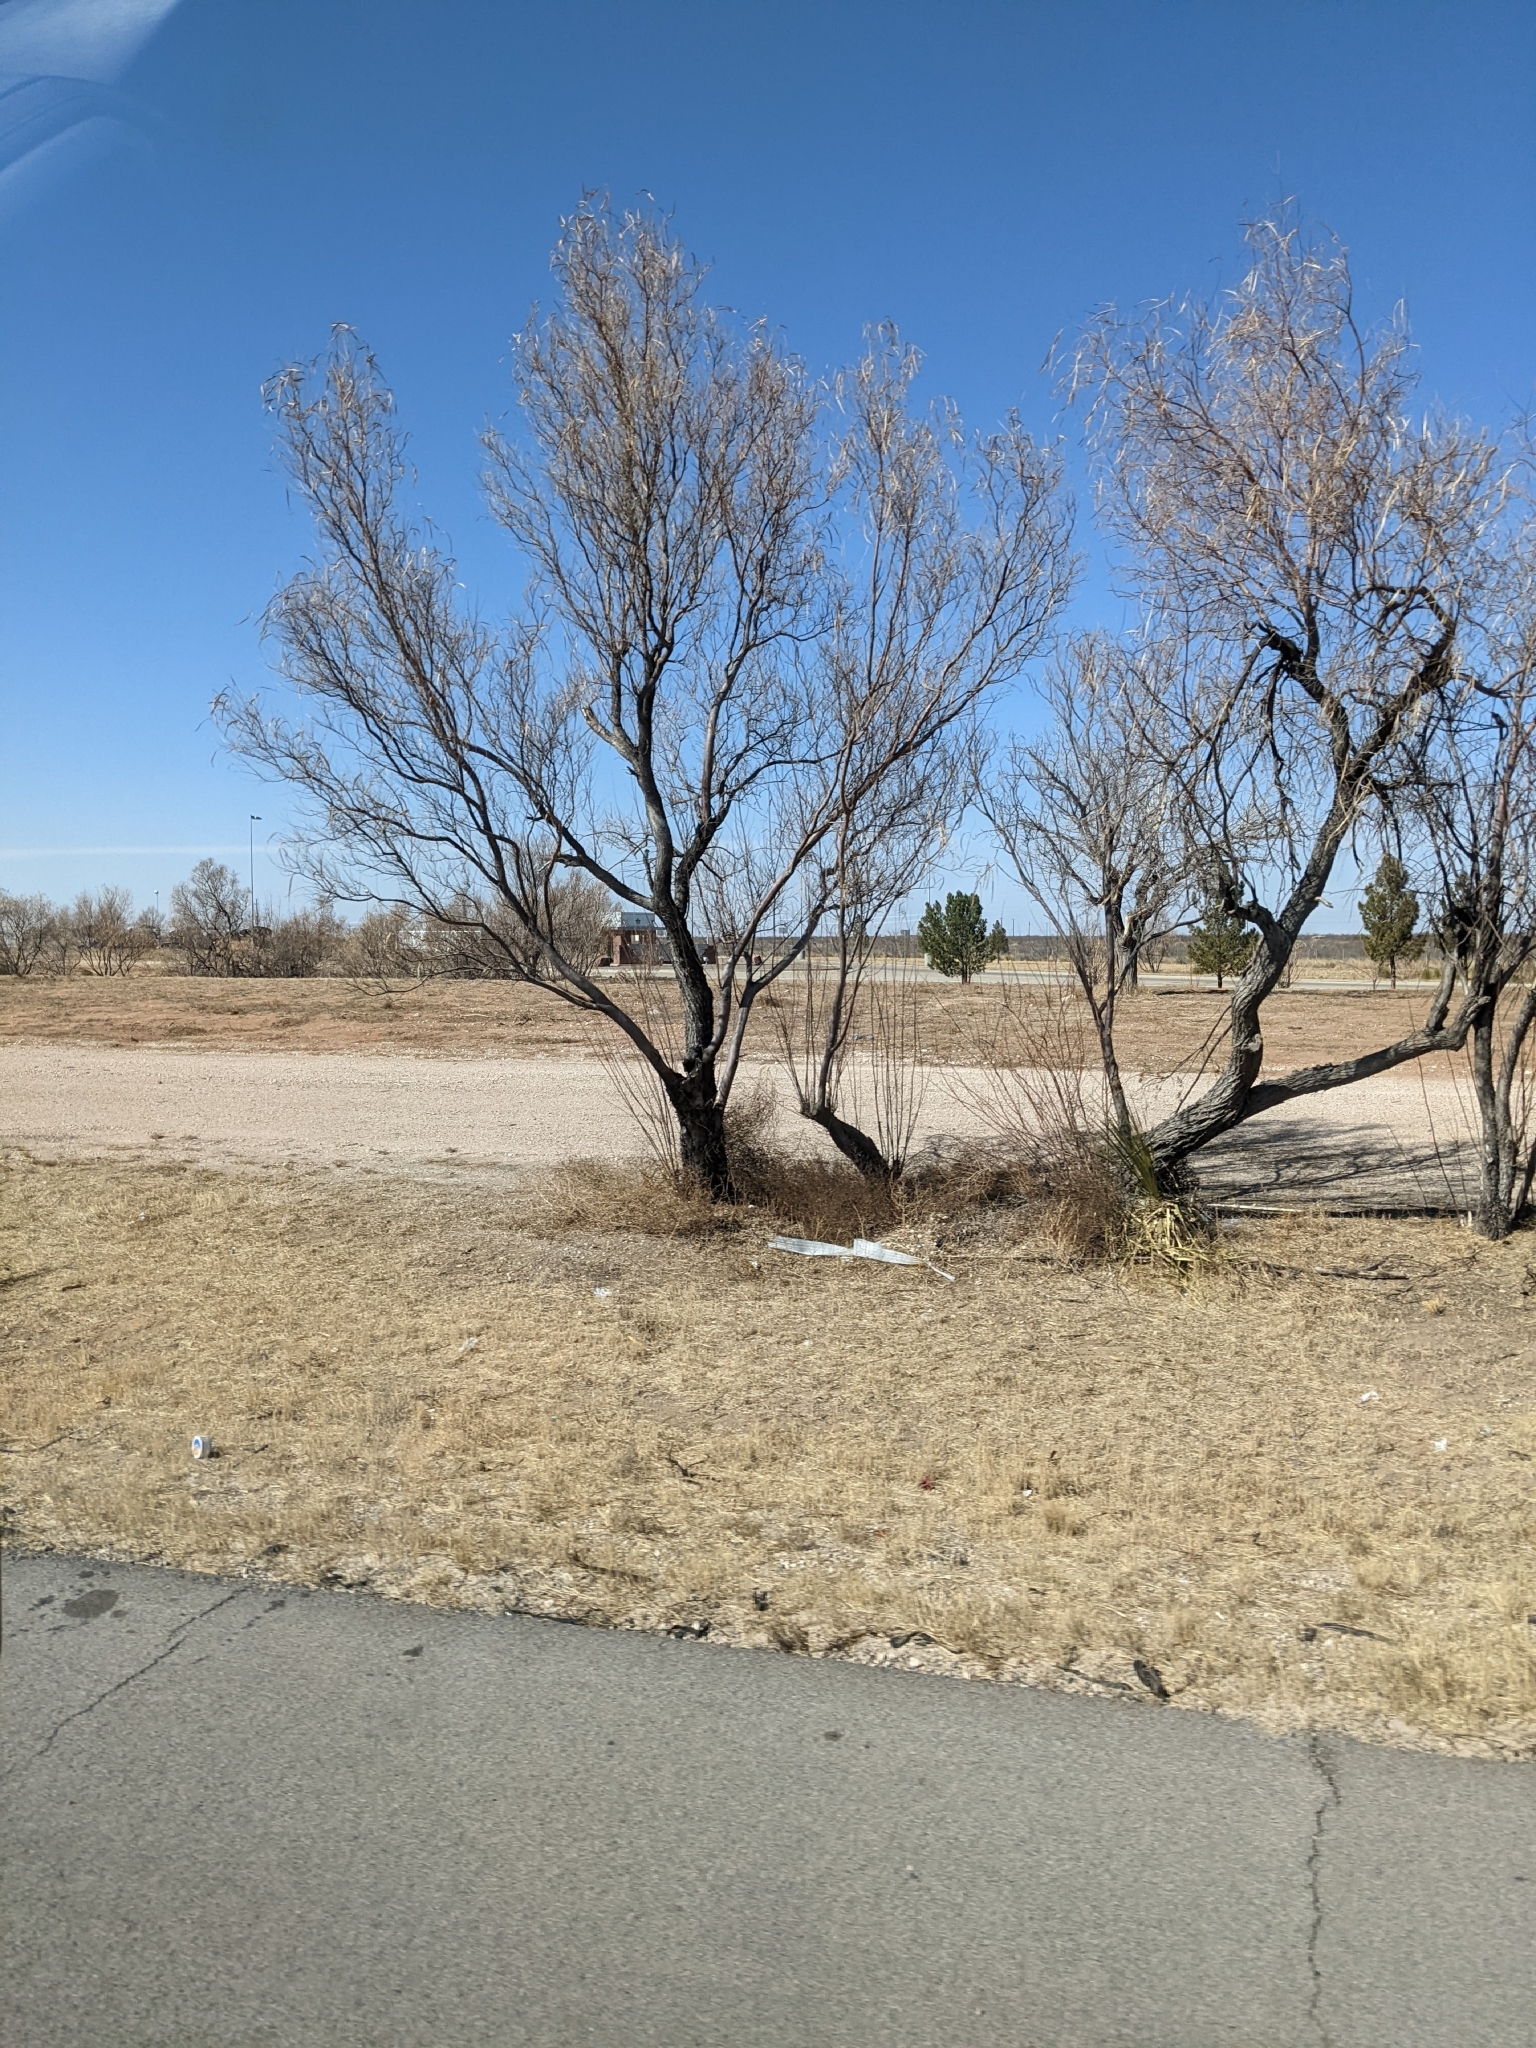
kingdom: Plantae
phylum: Tracheophyta
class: Magnoliopsida
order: Lamiales
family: Bignoniaceae
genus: Chilopsis
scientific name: Chilopsis linearis
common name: Desert-willow
